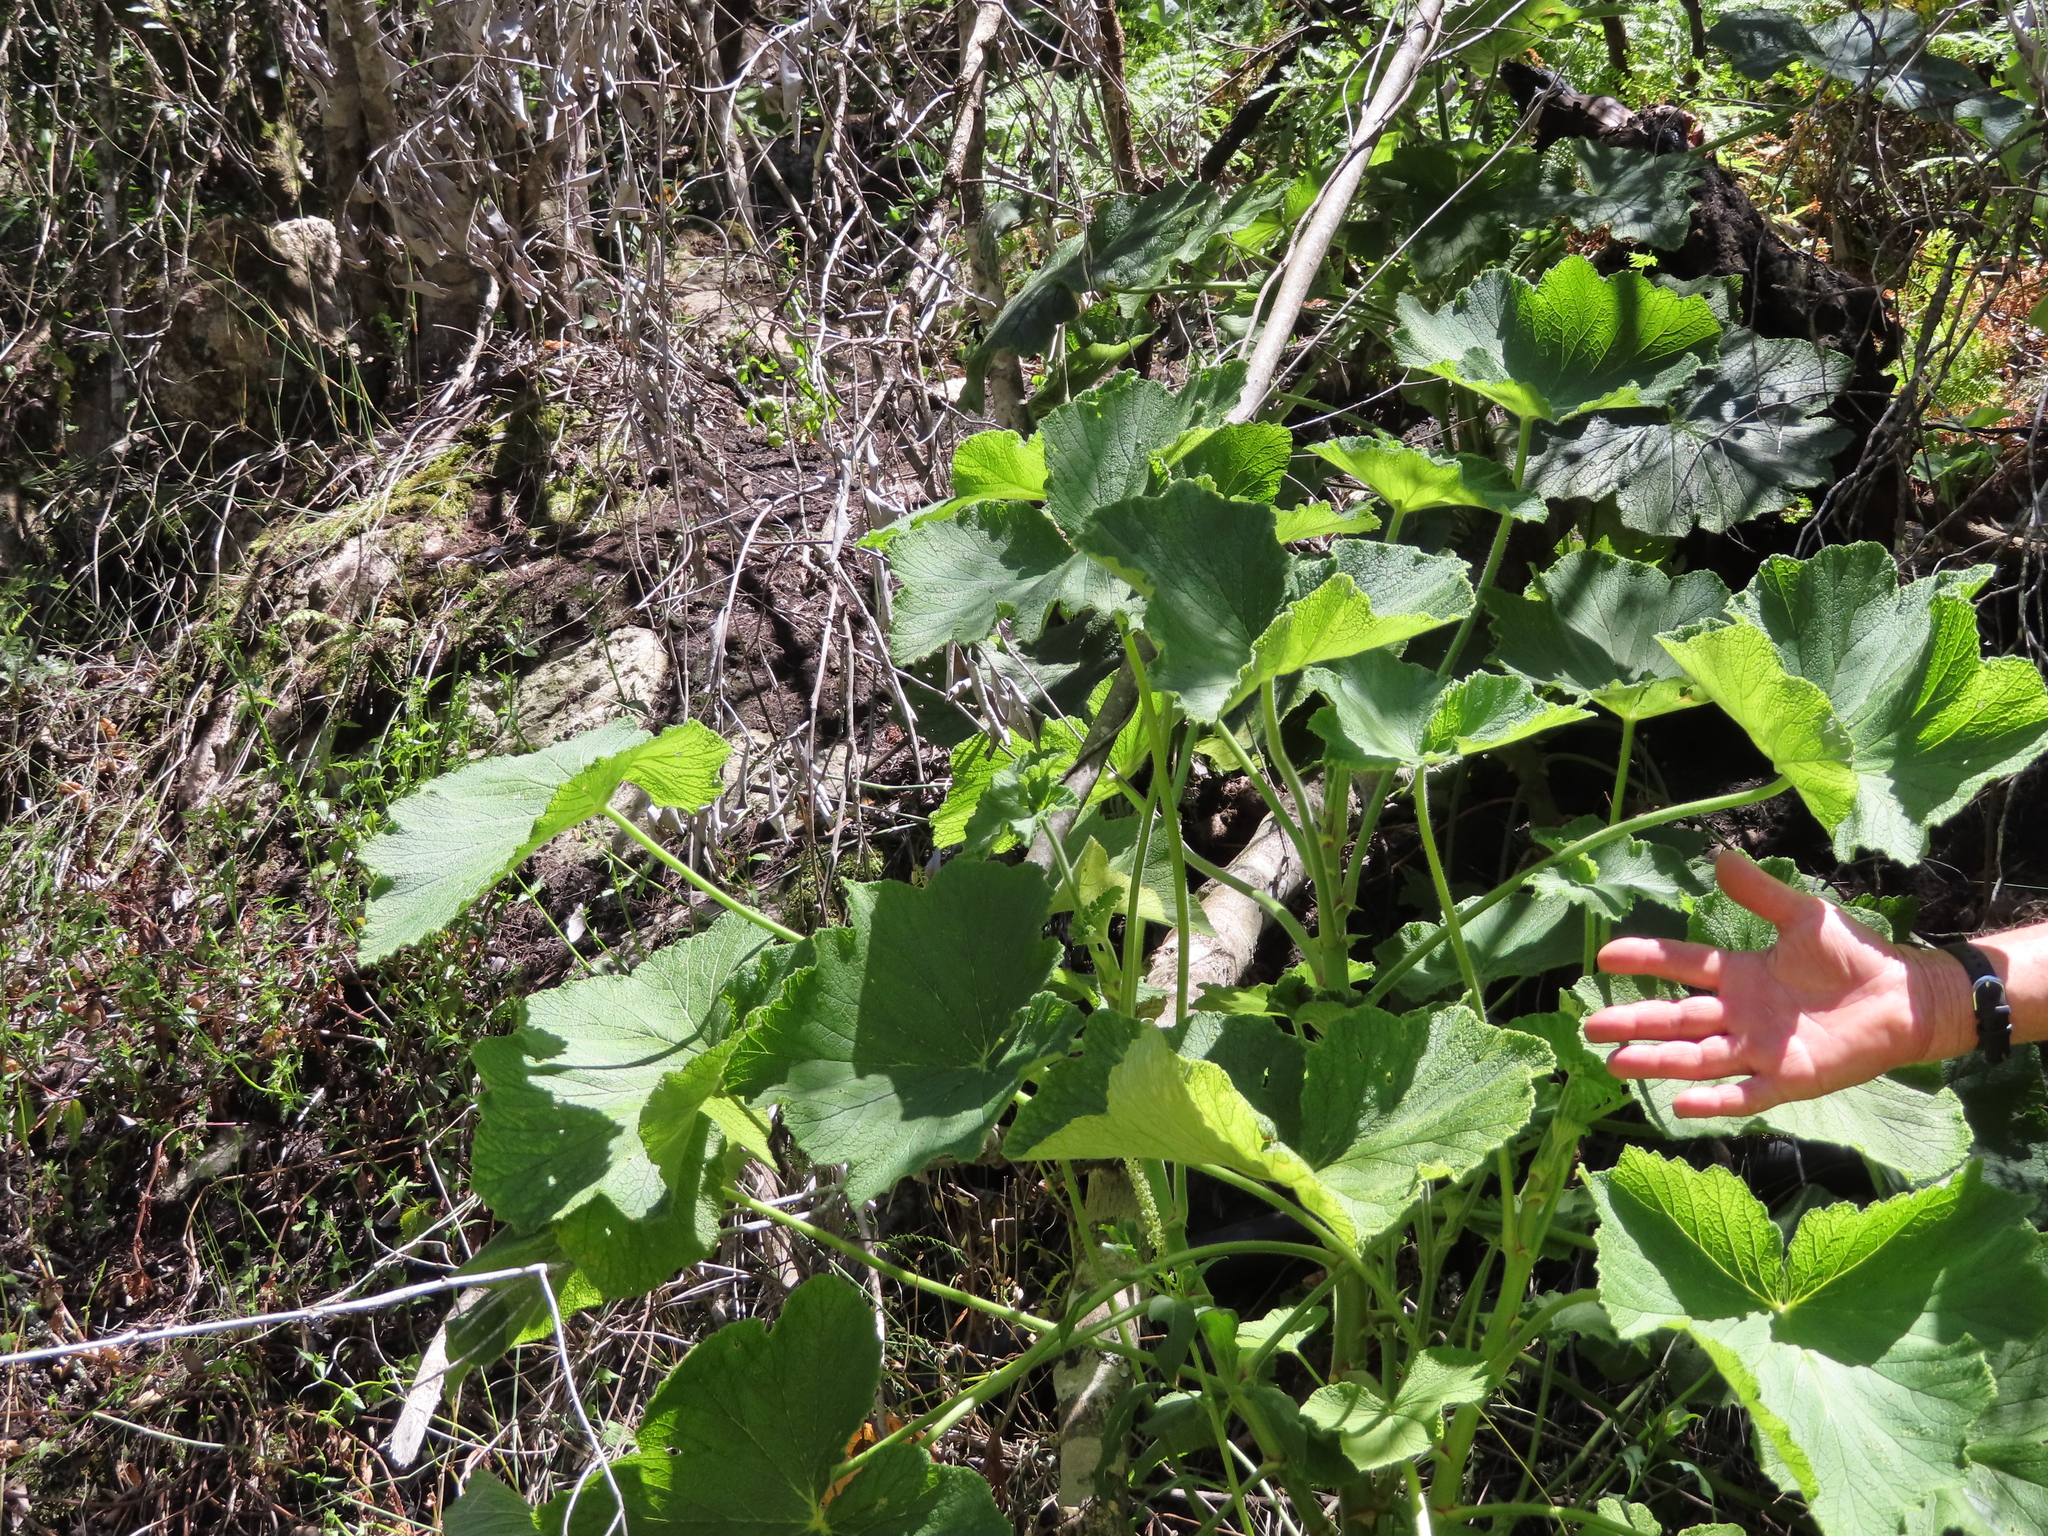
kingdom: Plantae
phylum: Tracheophyta
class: Magnoliopsida
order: Geraniales
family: Geraniaceae
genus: Pelargonium
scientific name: Pelargonium papilionaceum
